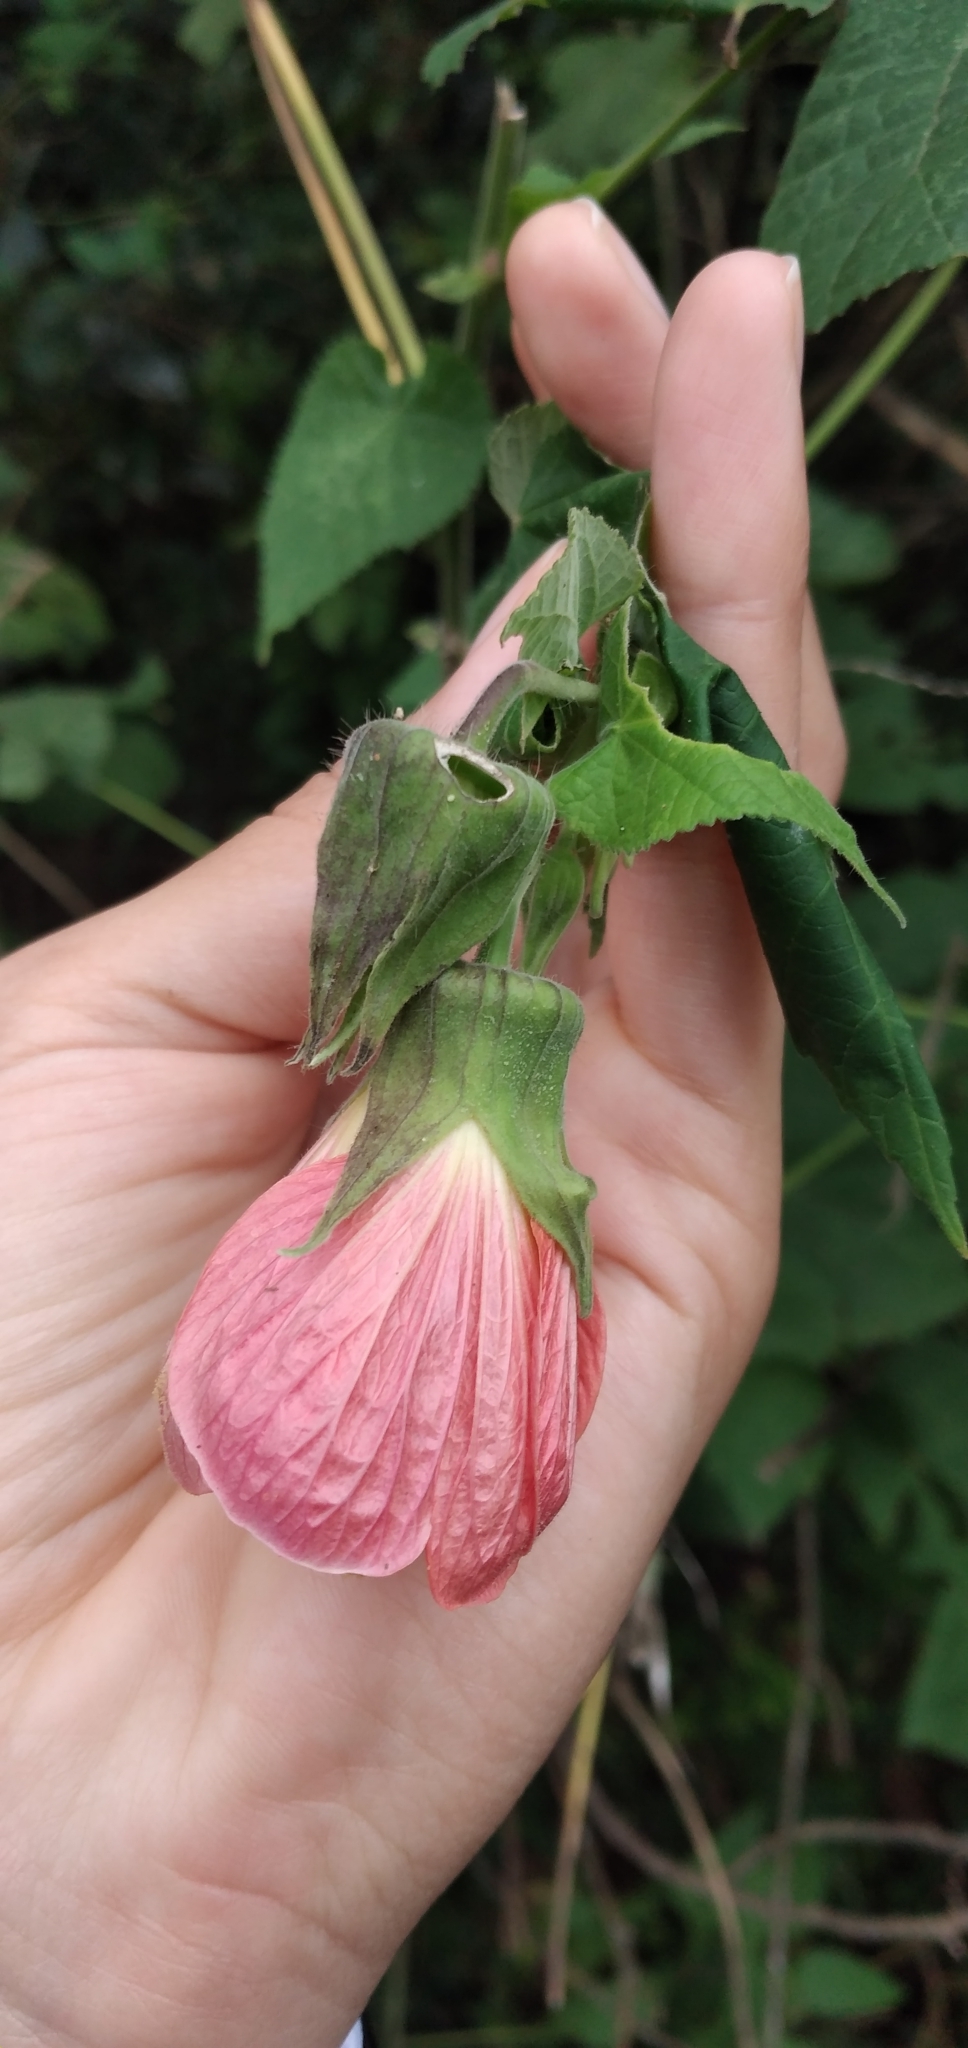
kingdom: Plantae
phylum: Tracheophyta
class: Magnoliopsida
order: Malvales
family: Malvaceae
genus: Callianthe
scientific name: Callianthe jujuiensis
